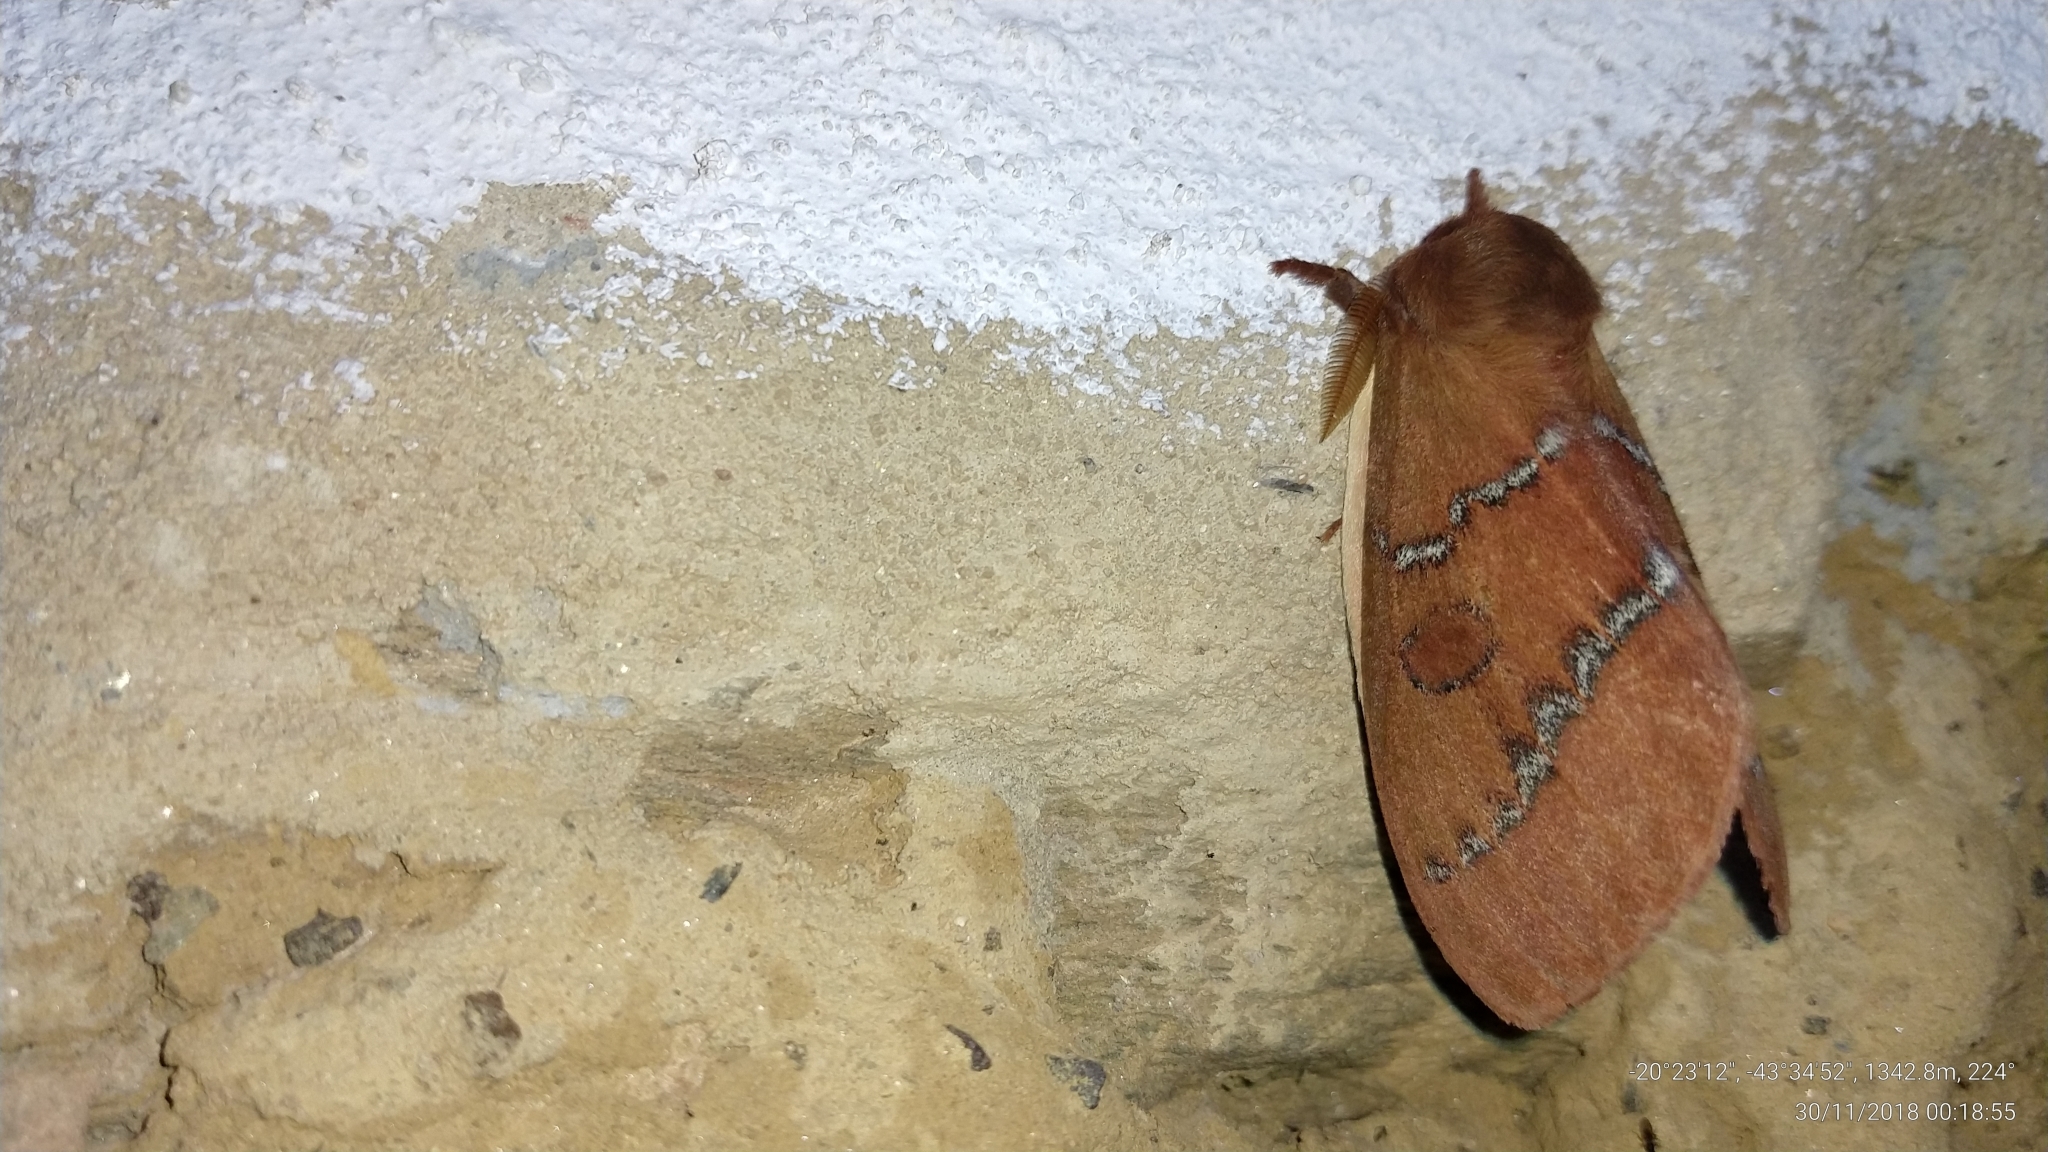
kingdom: Animalia
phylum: Arthropoda
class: Insecta
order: Lepidoptera
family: Saturniidae
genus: Automeris
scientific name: Automeris submacula
